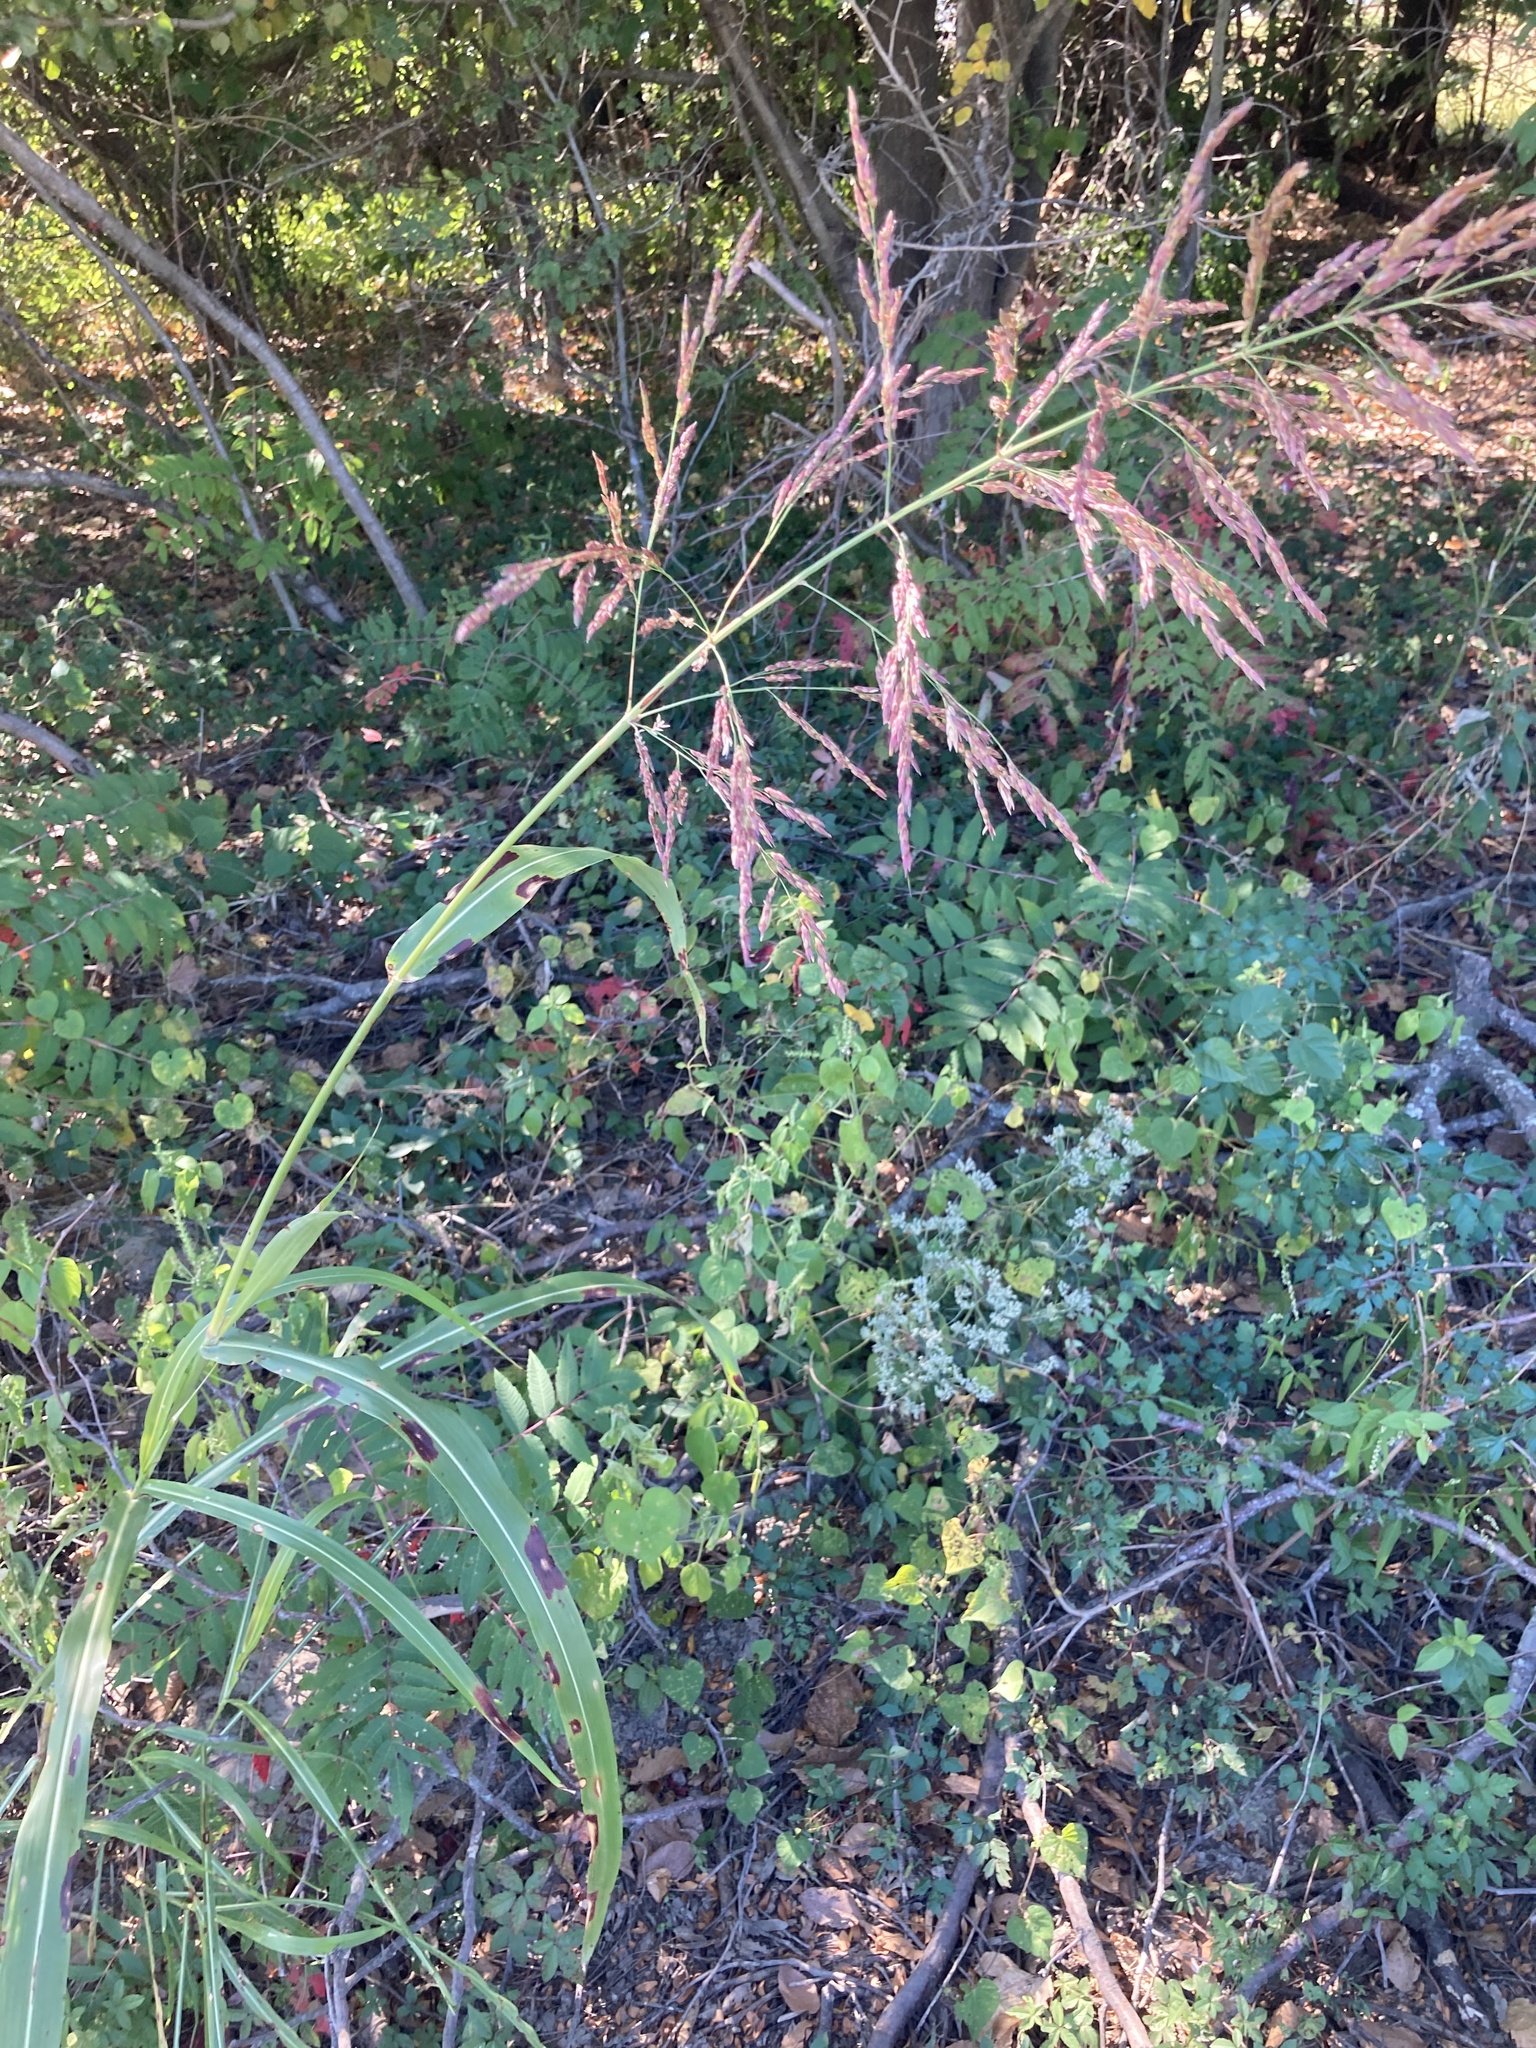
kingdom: Plantae
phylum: Tracheophyta
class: Liliopsida
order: Poales
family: Poaceae
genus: Sorghum
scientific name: Sorghum halepense
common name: Johnson-grass
